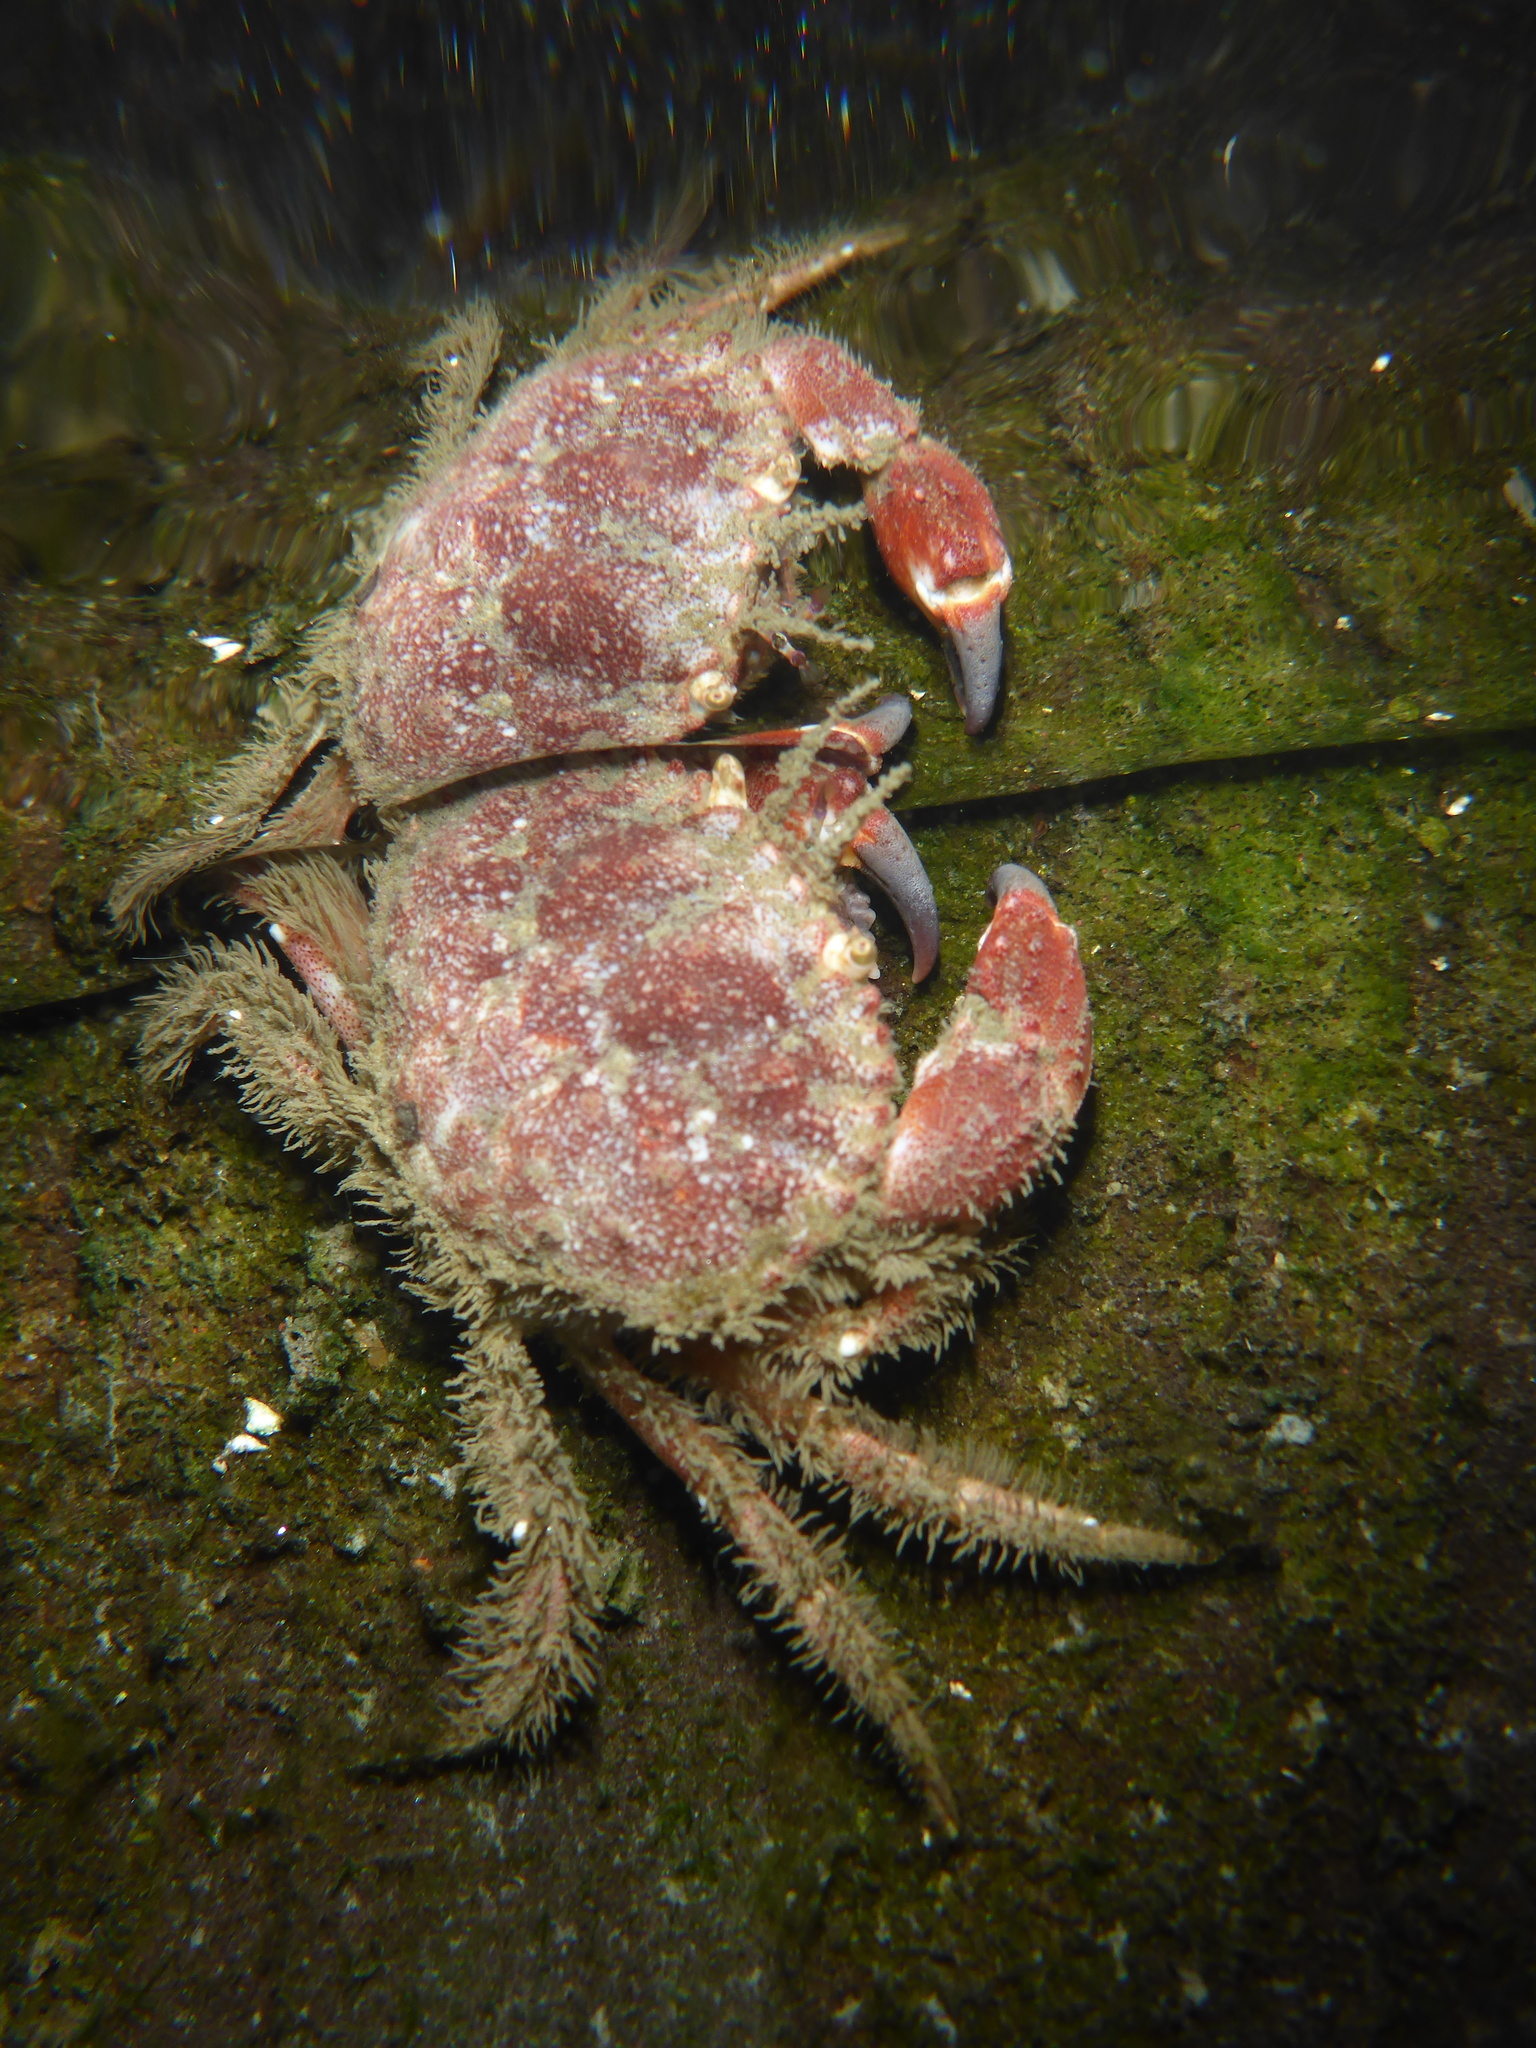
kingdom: Animalia
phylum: Arthropoda
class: Malacostraca
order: Decapoda
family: Cancridae
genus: Glebocarcinus
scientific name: Glebocarcinus oregonensis
